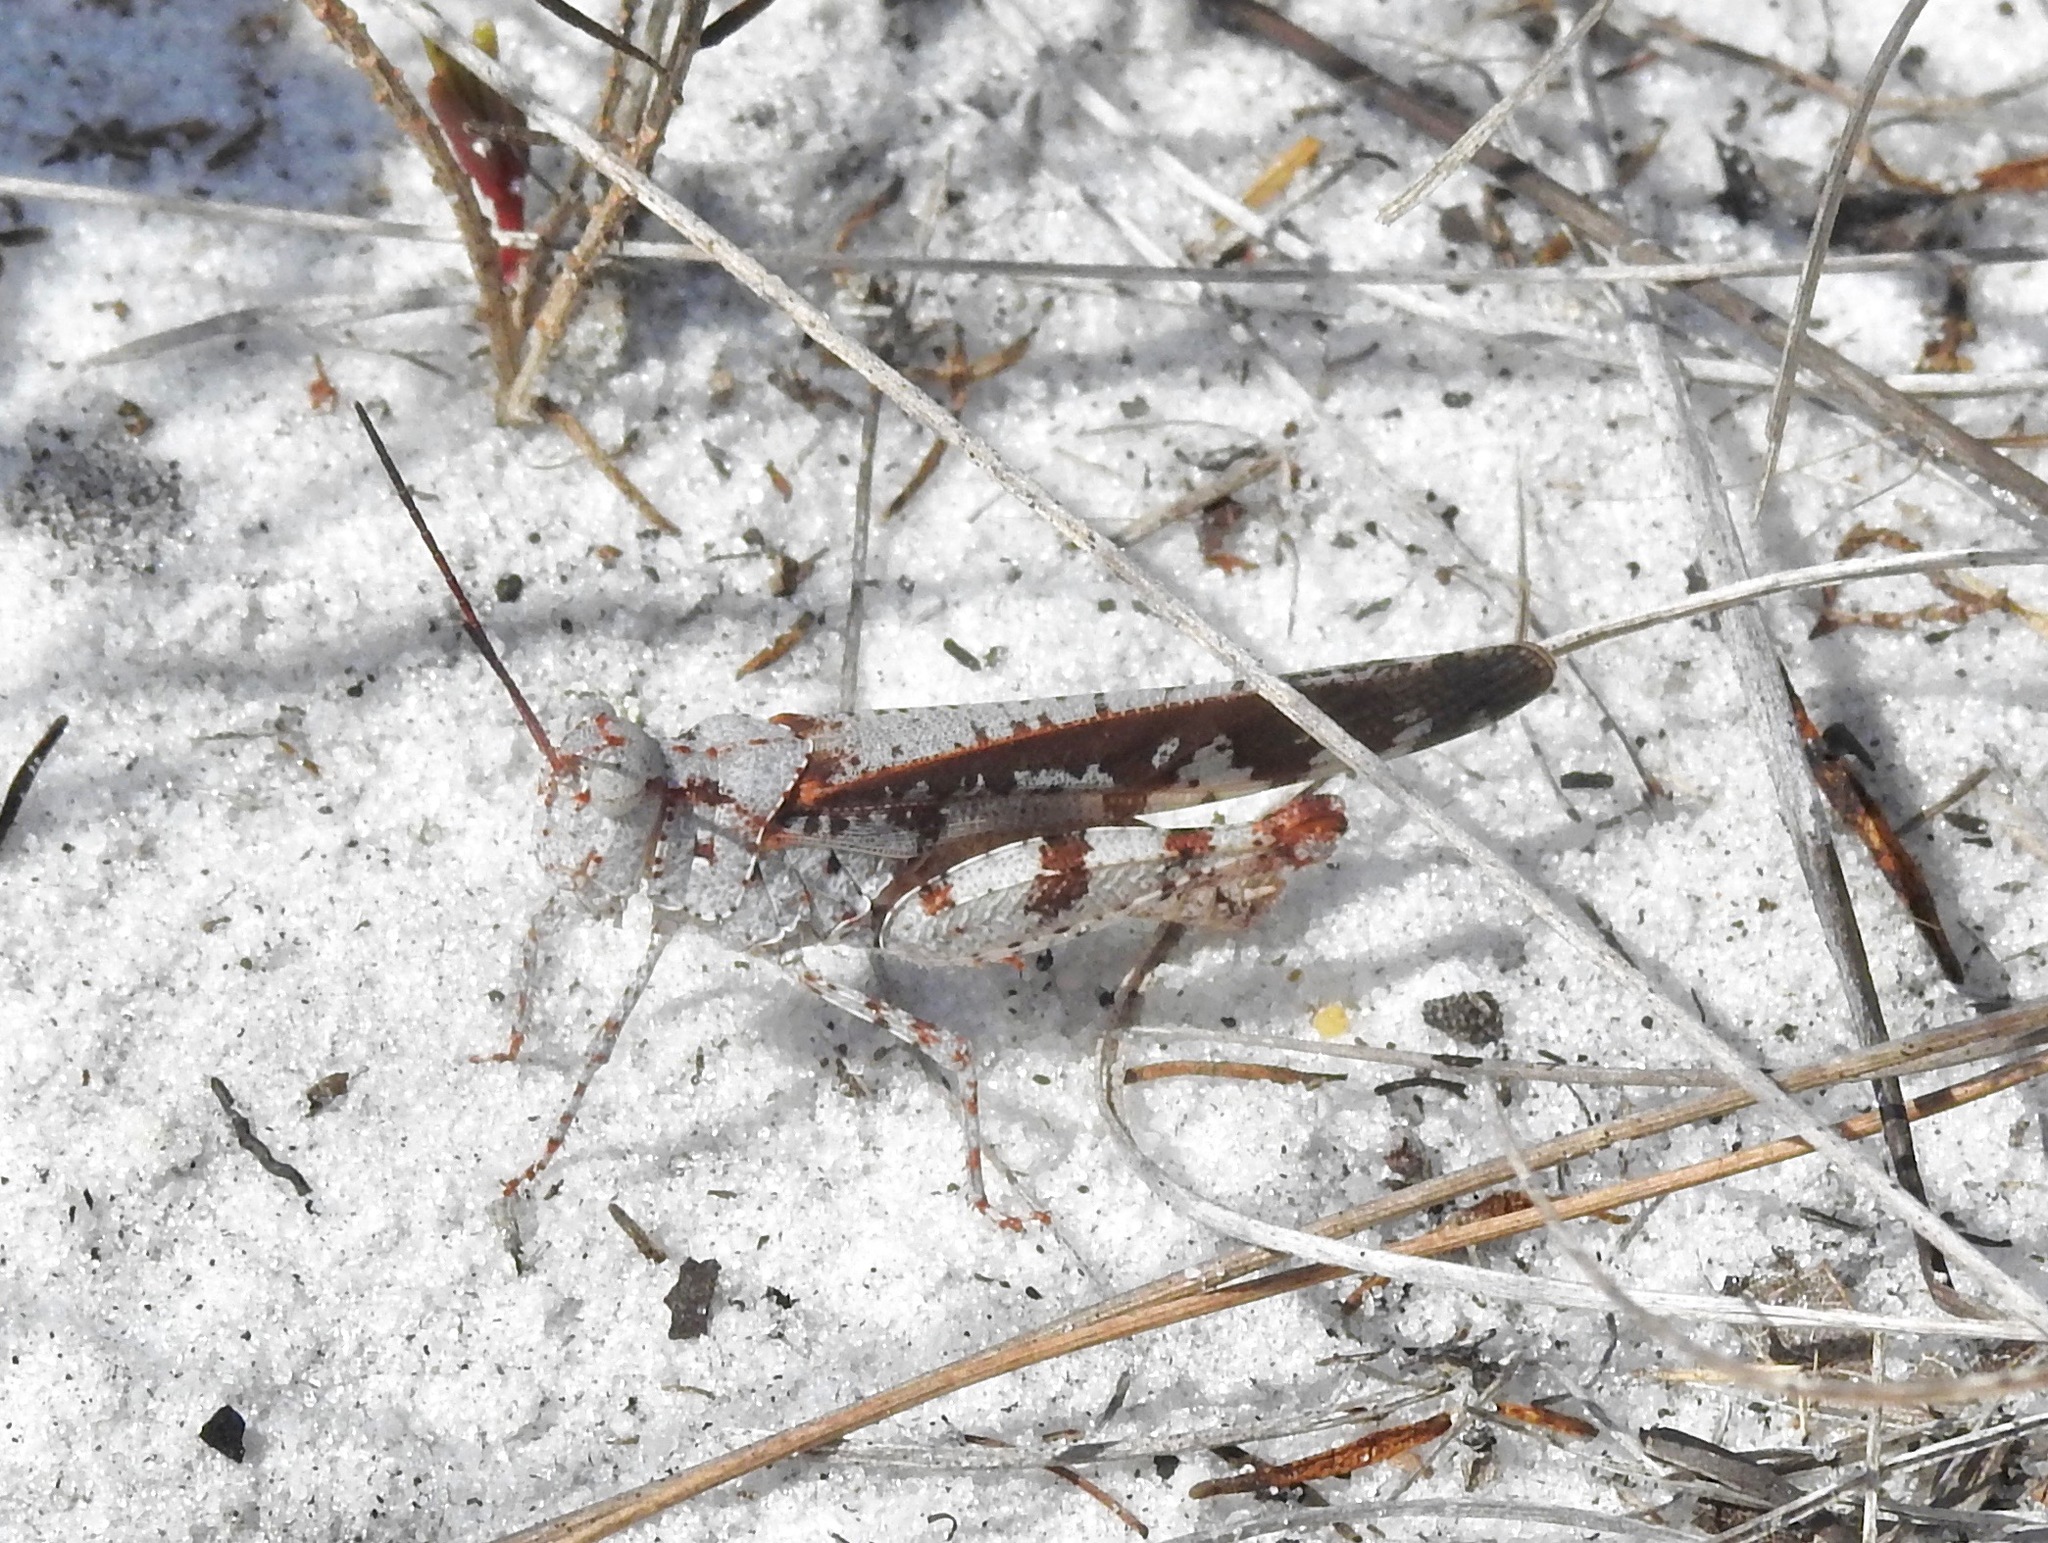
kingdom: Animalia
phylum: Arthropoda
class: Insecta
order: Orthoptera
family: Acrididae
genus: Spharagemon
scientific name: Spharagemon marmoratum
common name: Marbled grasshopper
